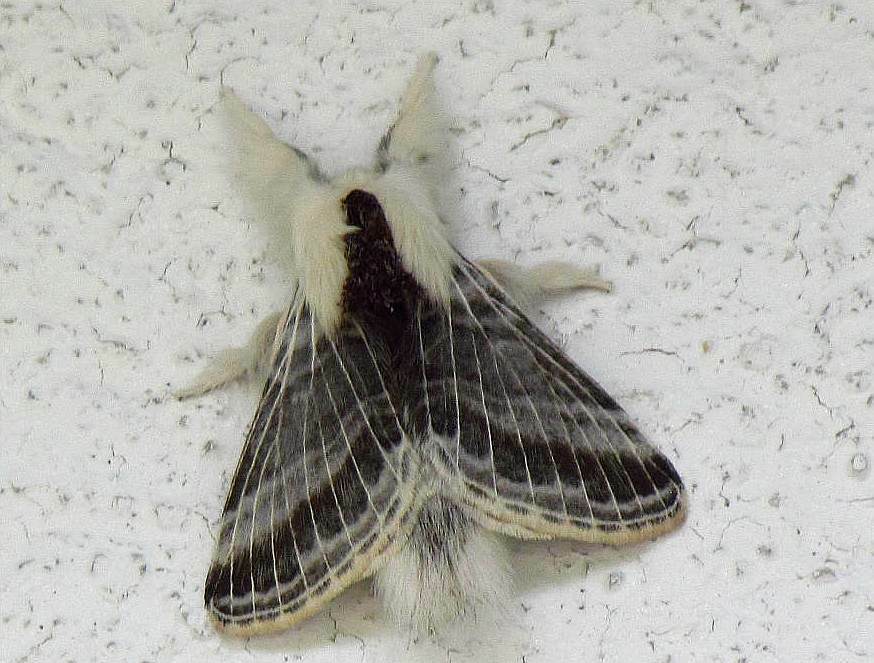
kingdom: Animalia
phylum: Arthropoda
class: Insecta
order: Lepidoptera
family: Lasiocampidae
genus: Tolype
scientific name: Tolype velleda
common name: Large tolype moth
